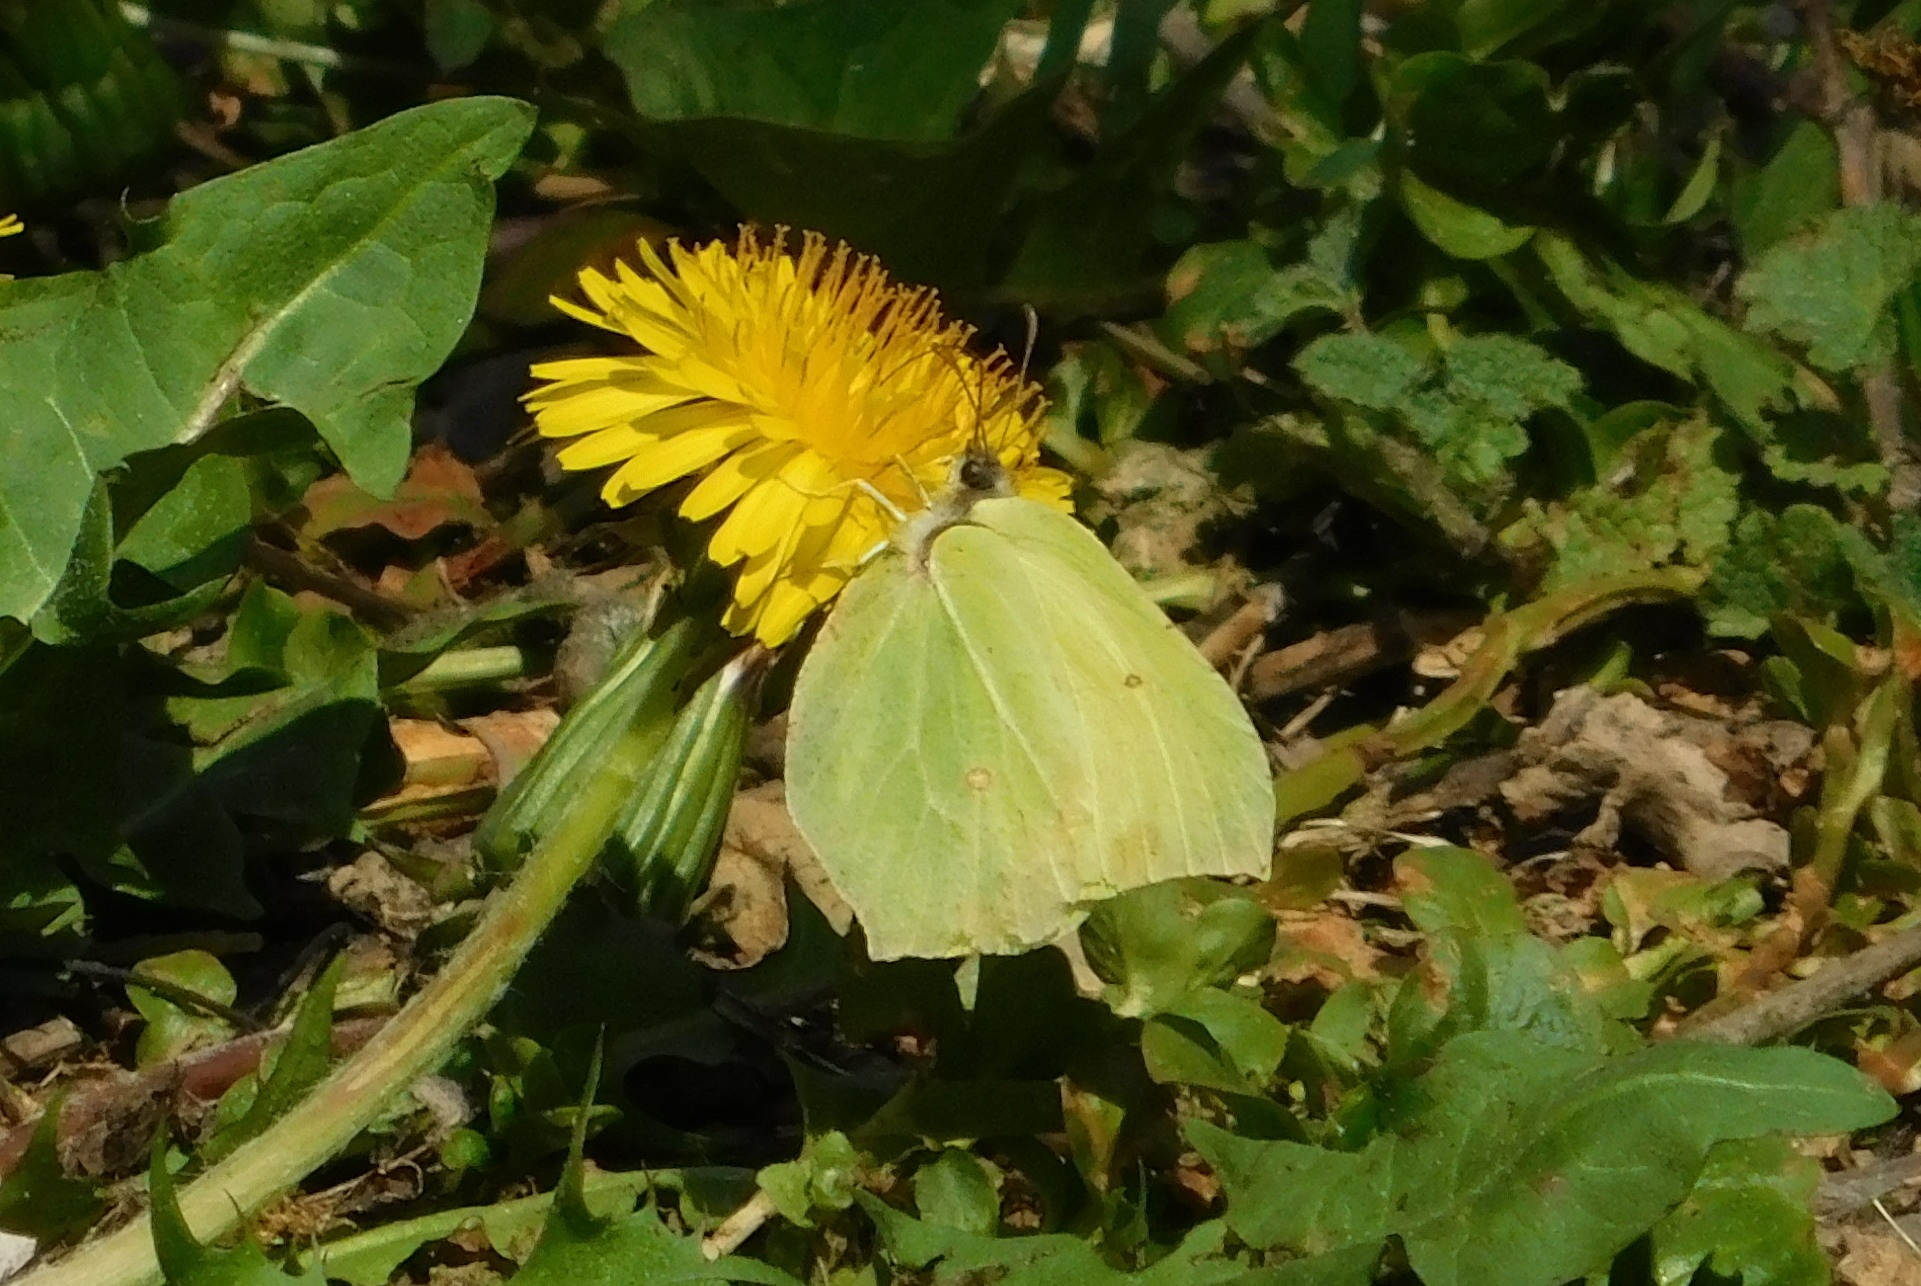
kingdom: Animalia
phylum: Arthropoda
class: Insecta
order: Lepidoptera
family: Pieridae
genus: Gonepteryx
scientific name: Gonepteryx rhamni
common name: Brimstone
